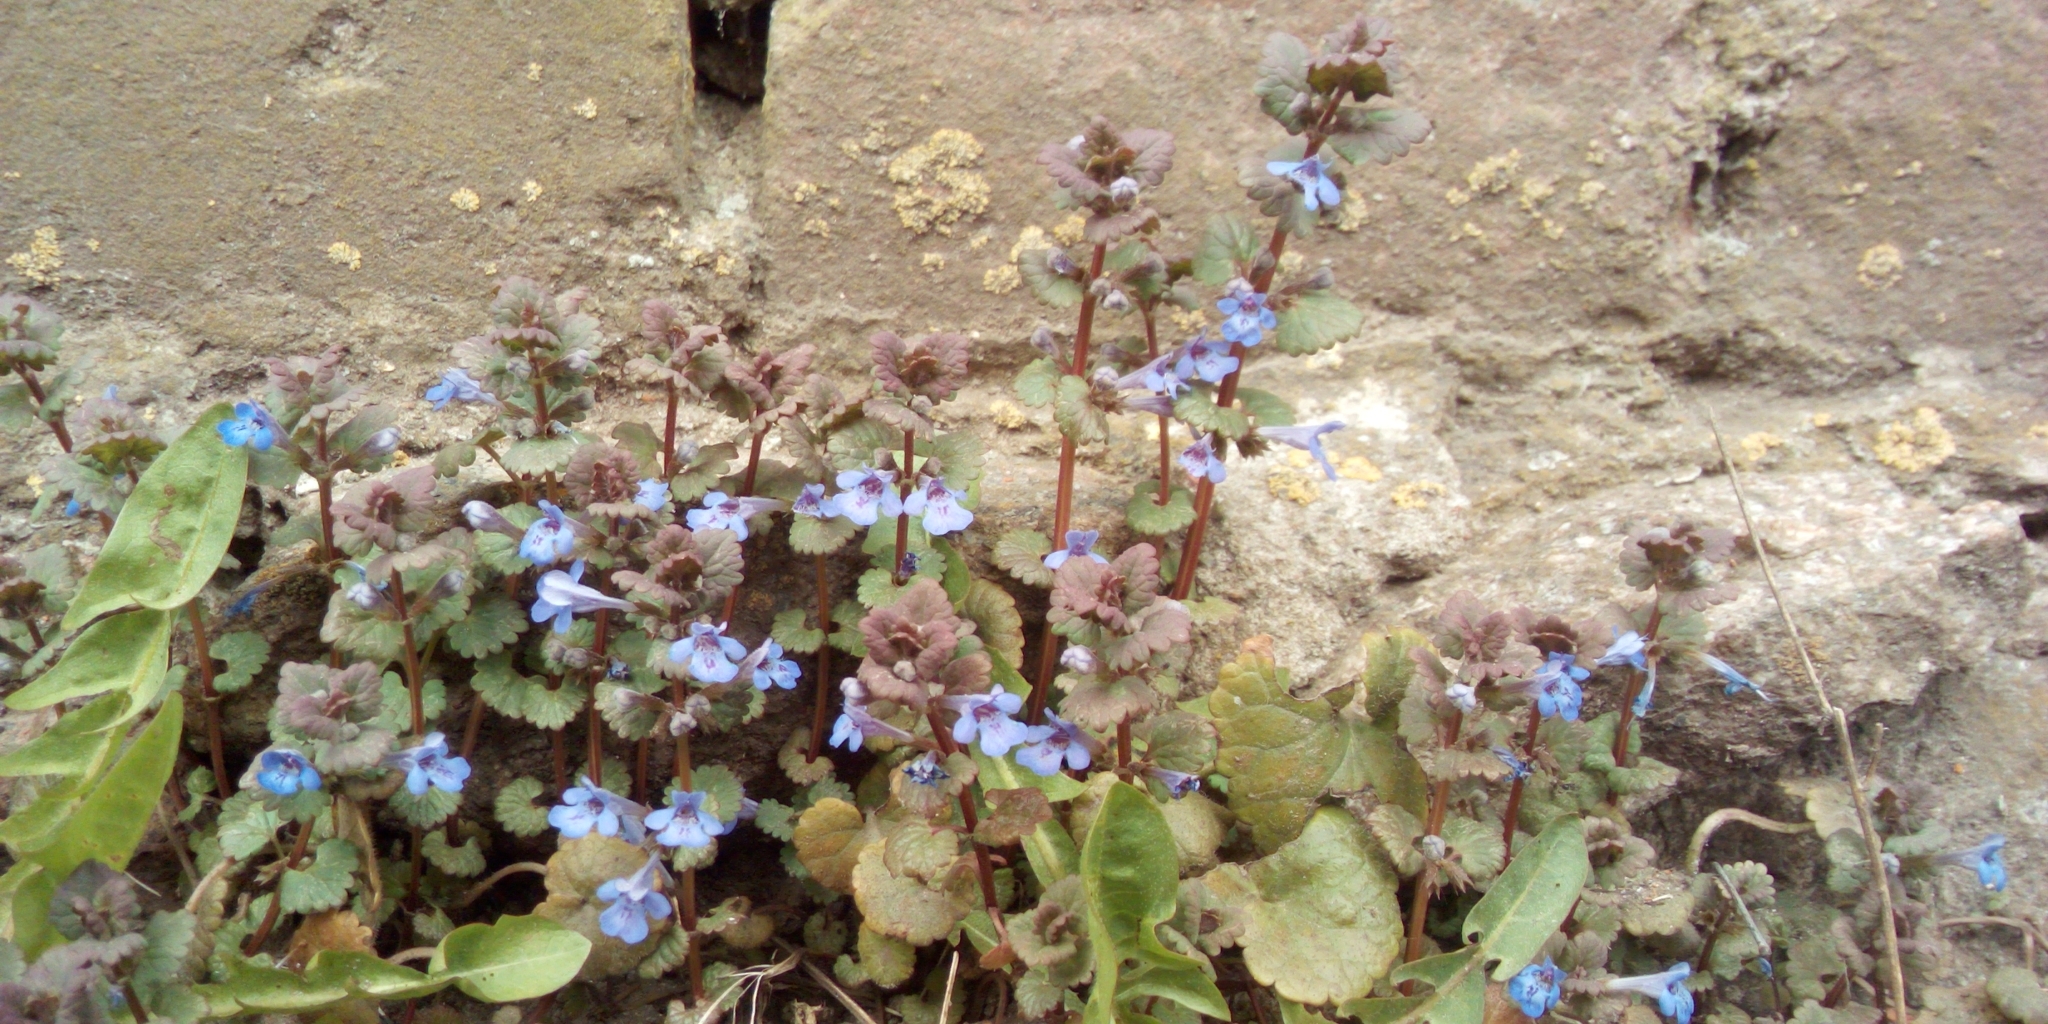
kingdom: Plantae
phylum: Tracheophyta
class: Magnoliopsida
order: Lamiales
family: Lamiaceae
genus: Glechoma
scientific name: Glechoma hederacea
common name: Ground ivy
